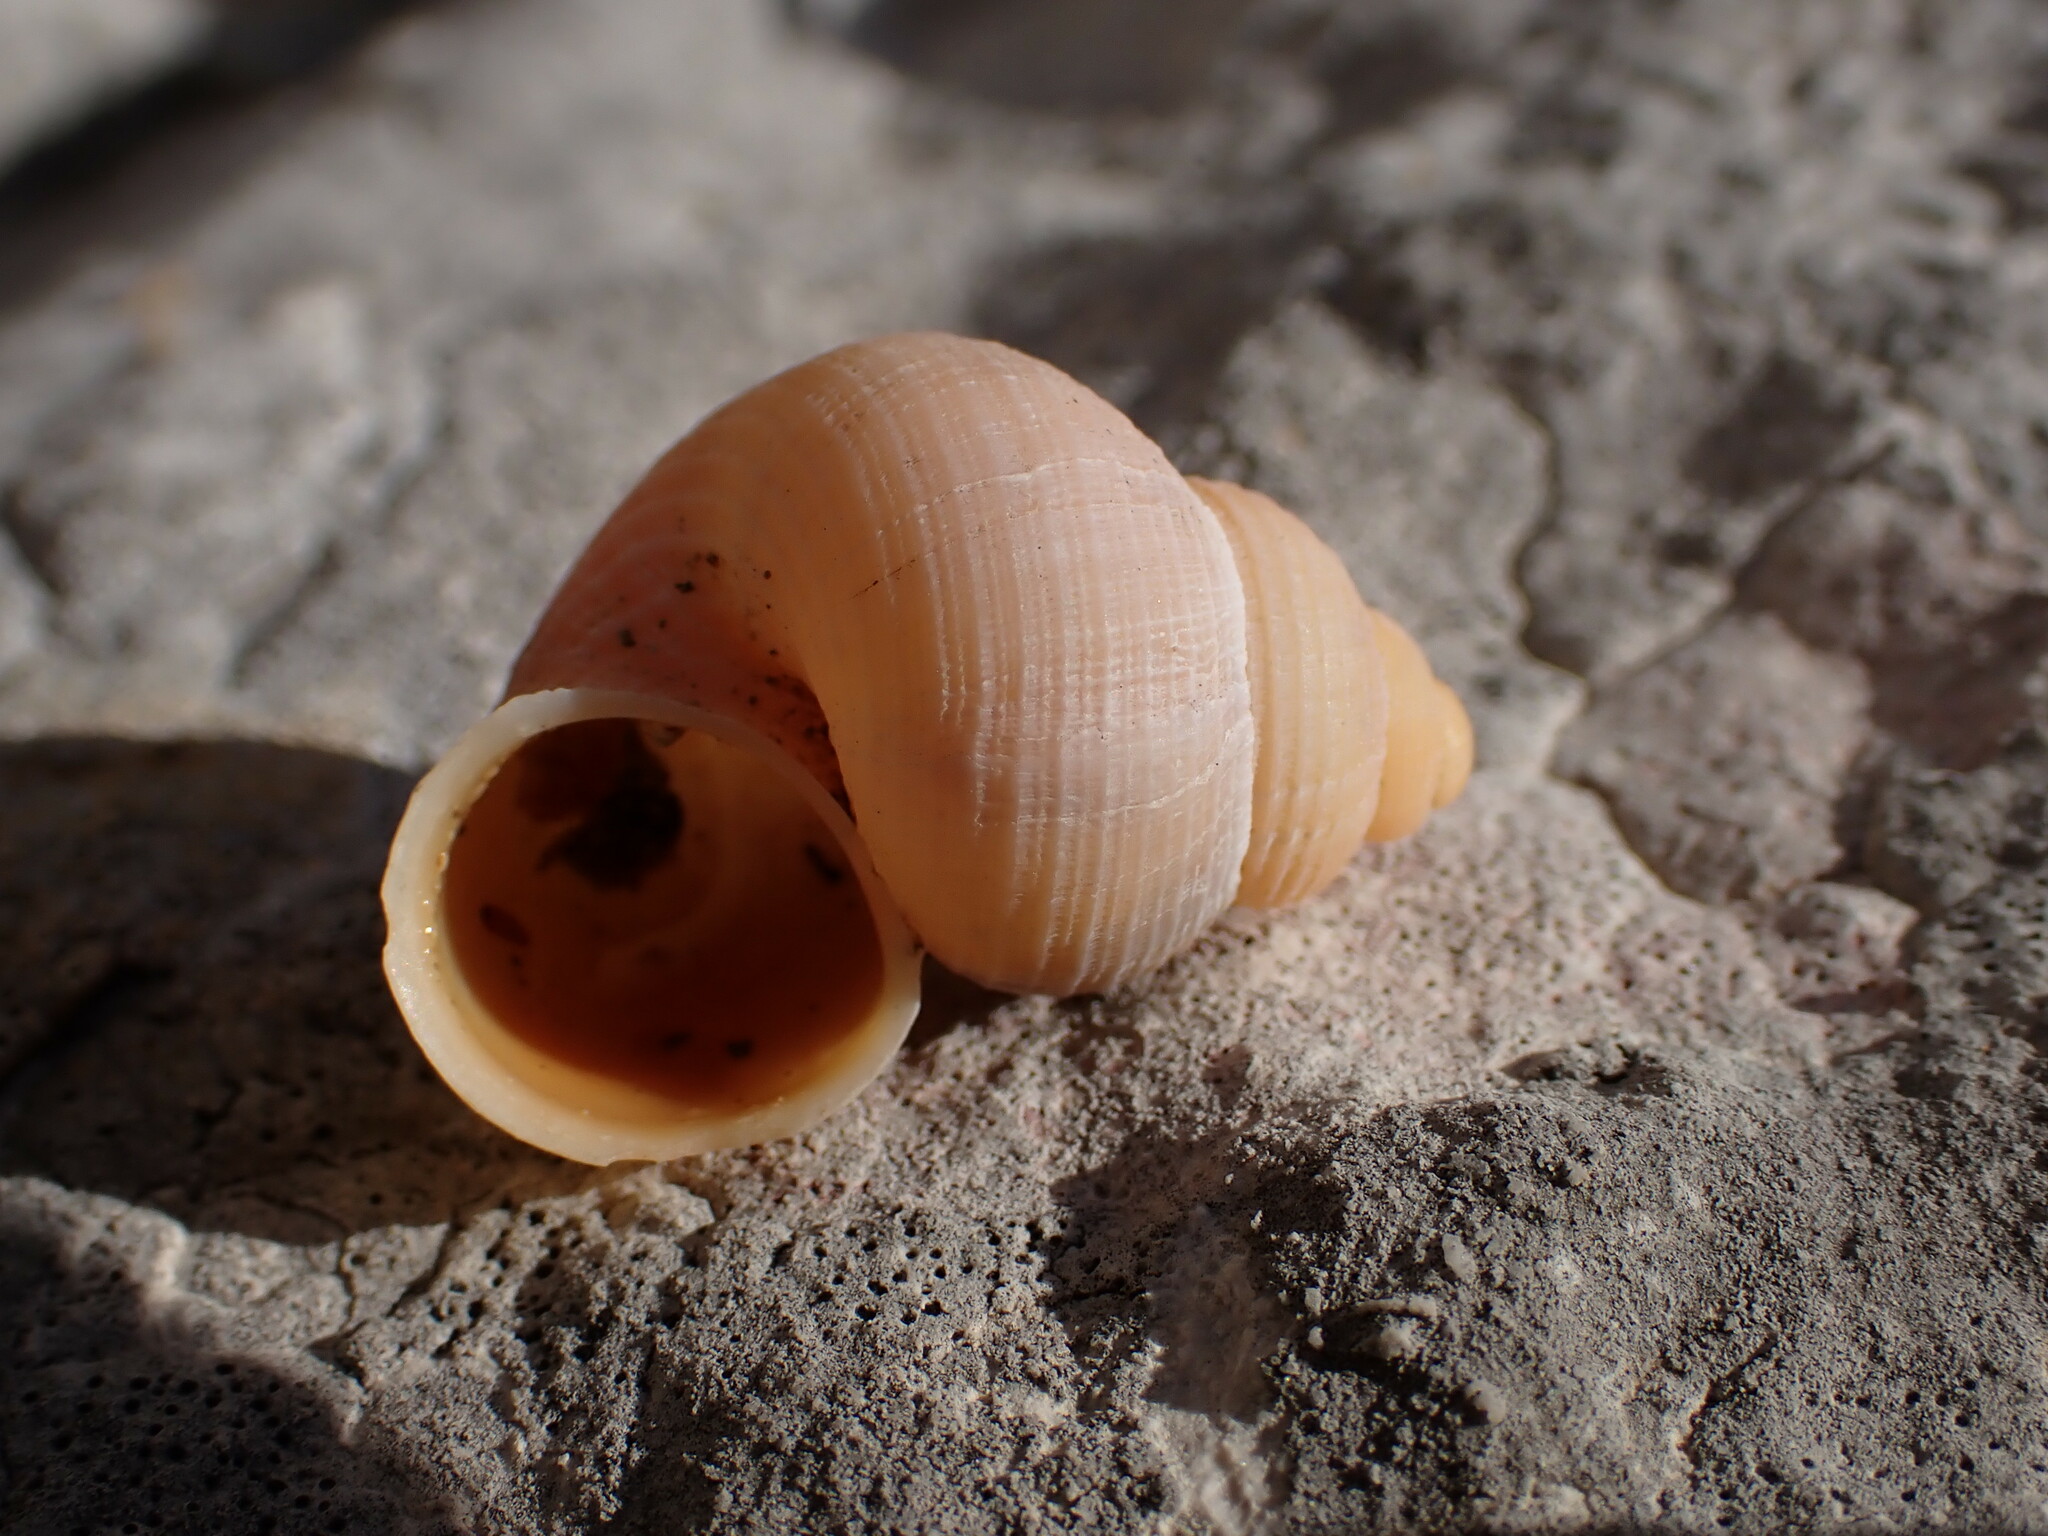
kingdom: Animalia
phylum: Mollusca
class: Gastropoda
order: Littorinimorpha
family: Pomatiidae
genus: Tudorella
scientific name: Tudorella sulcata
